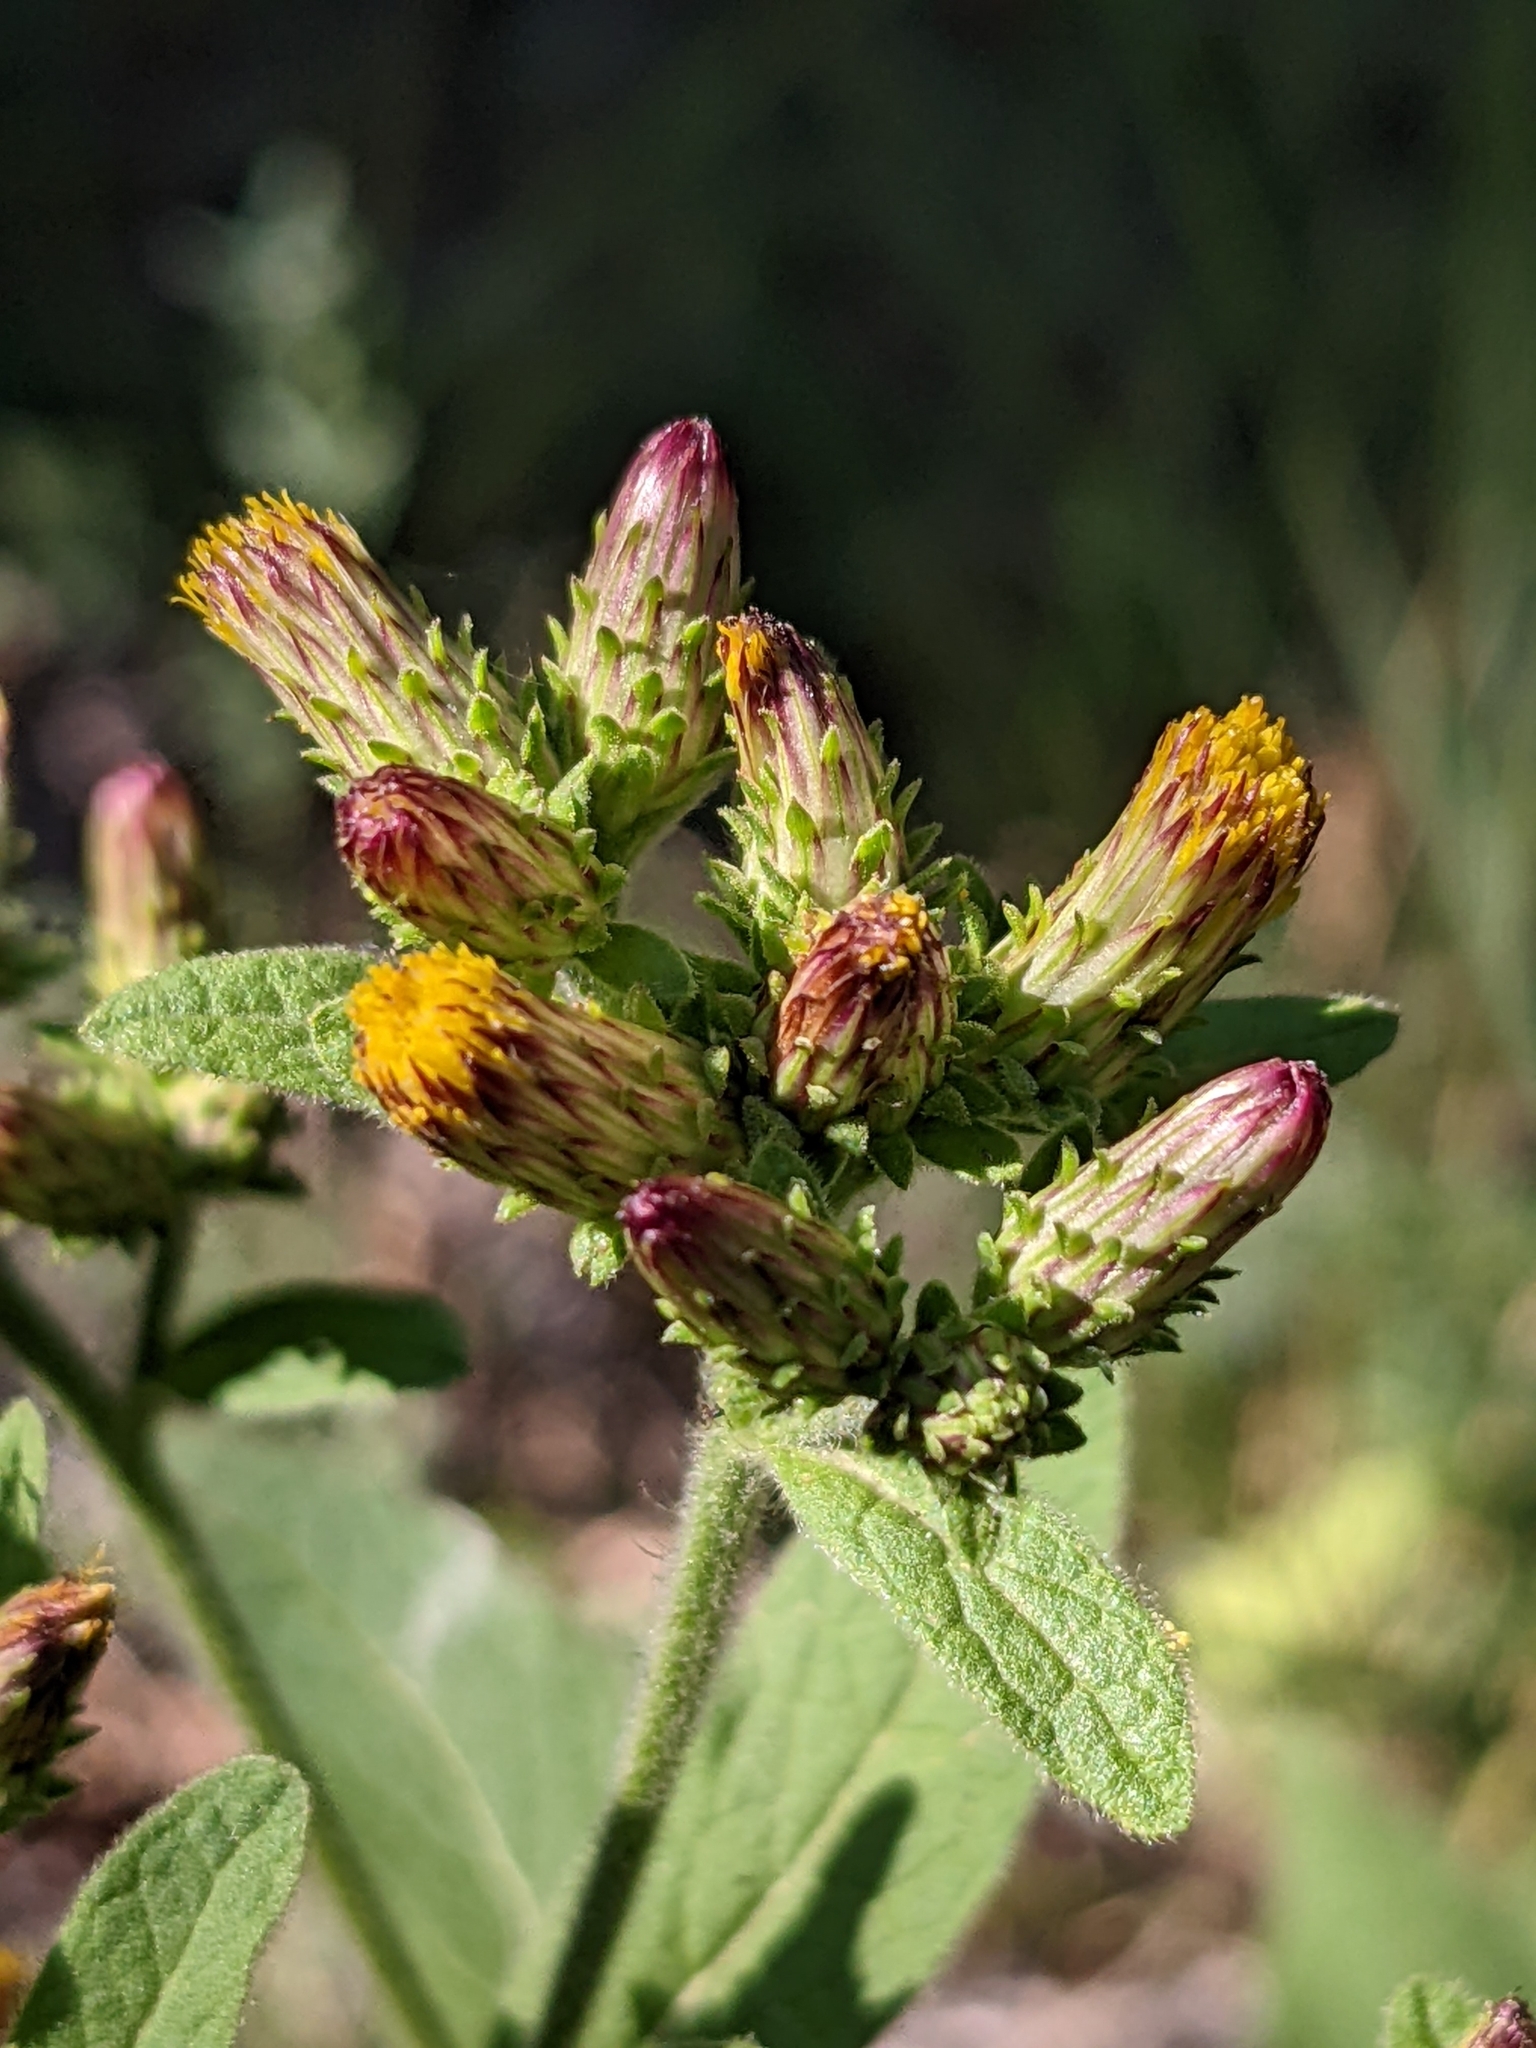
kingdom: Plantae
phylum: Tracheophyta
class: Magnoliopsida
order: Asterales
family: Asteraceae
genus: Pentanema
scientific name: Pentanema squarrosum
